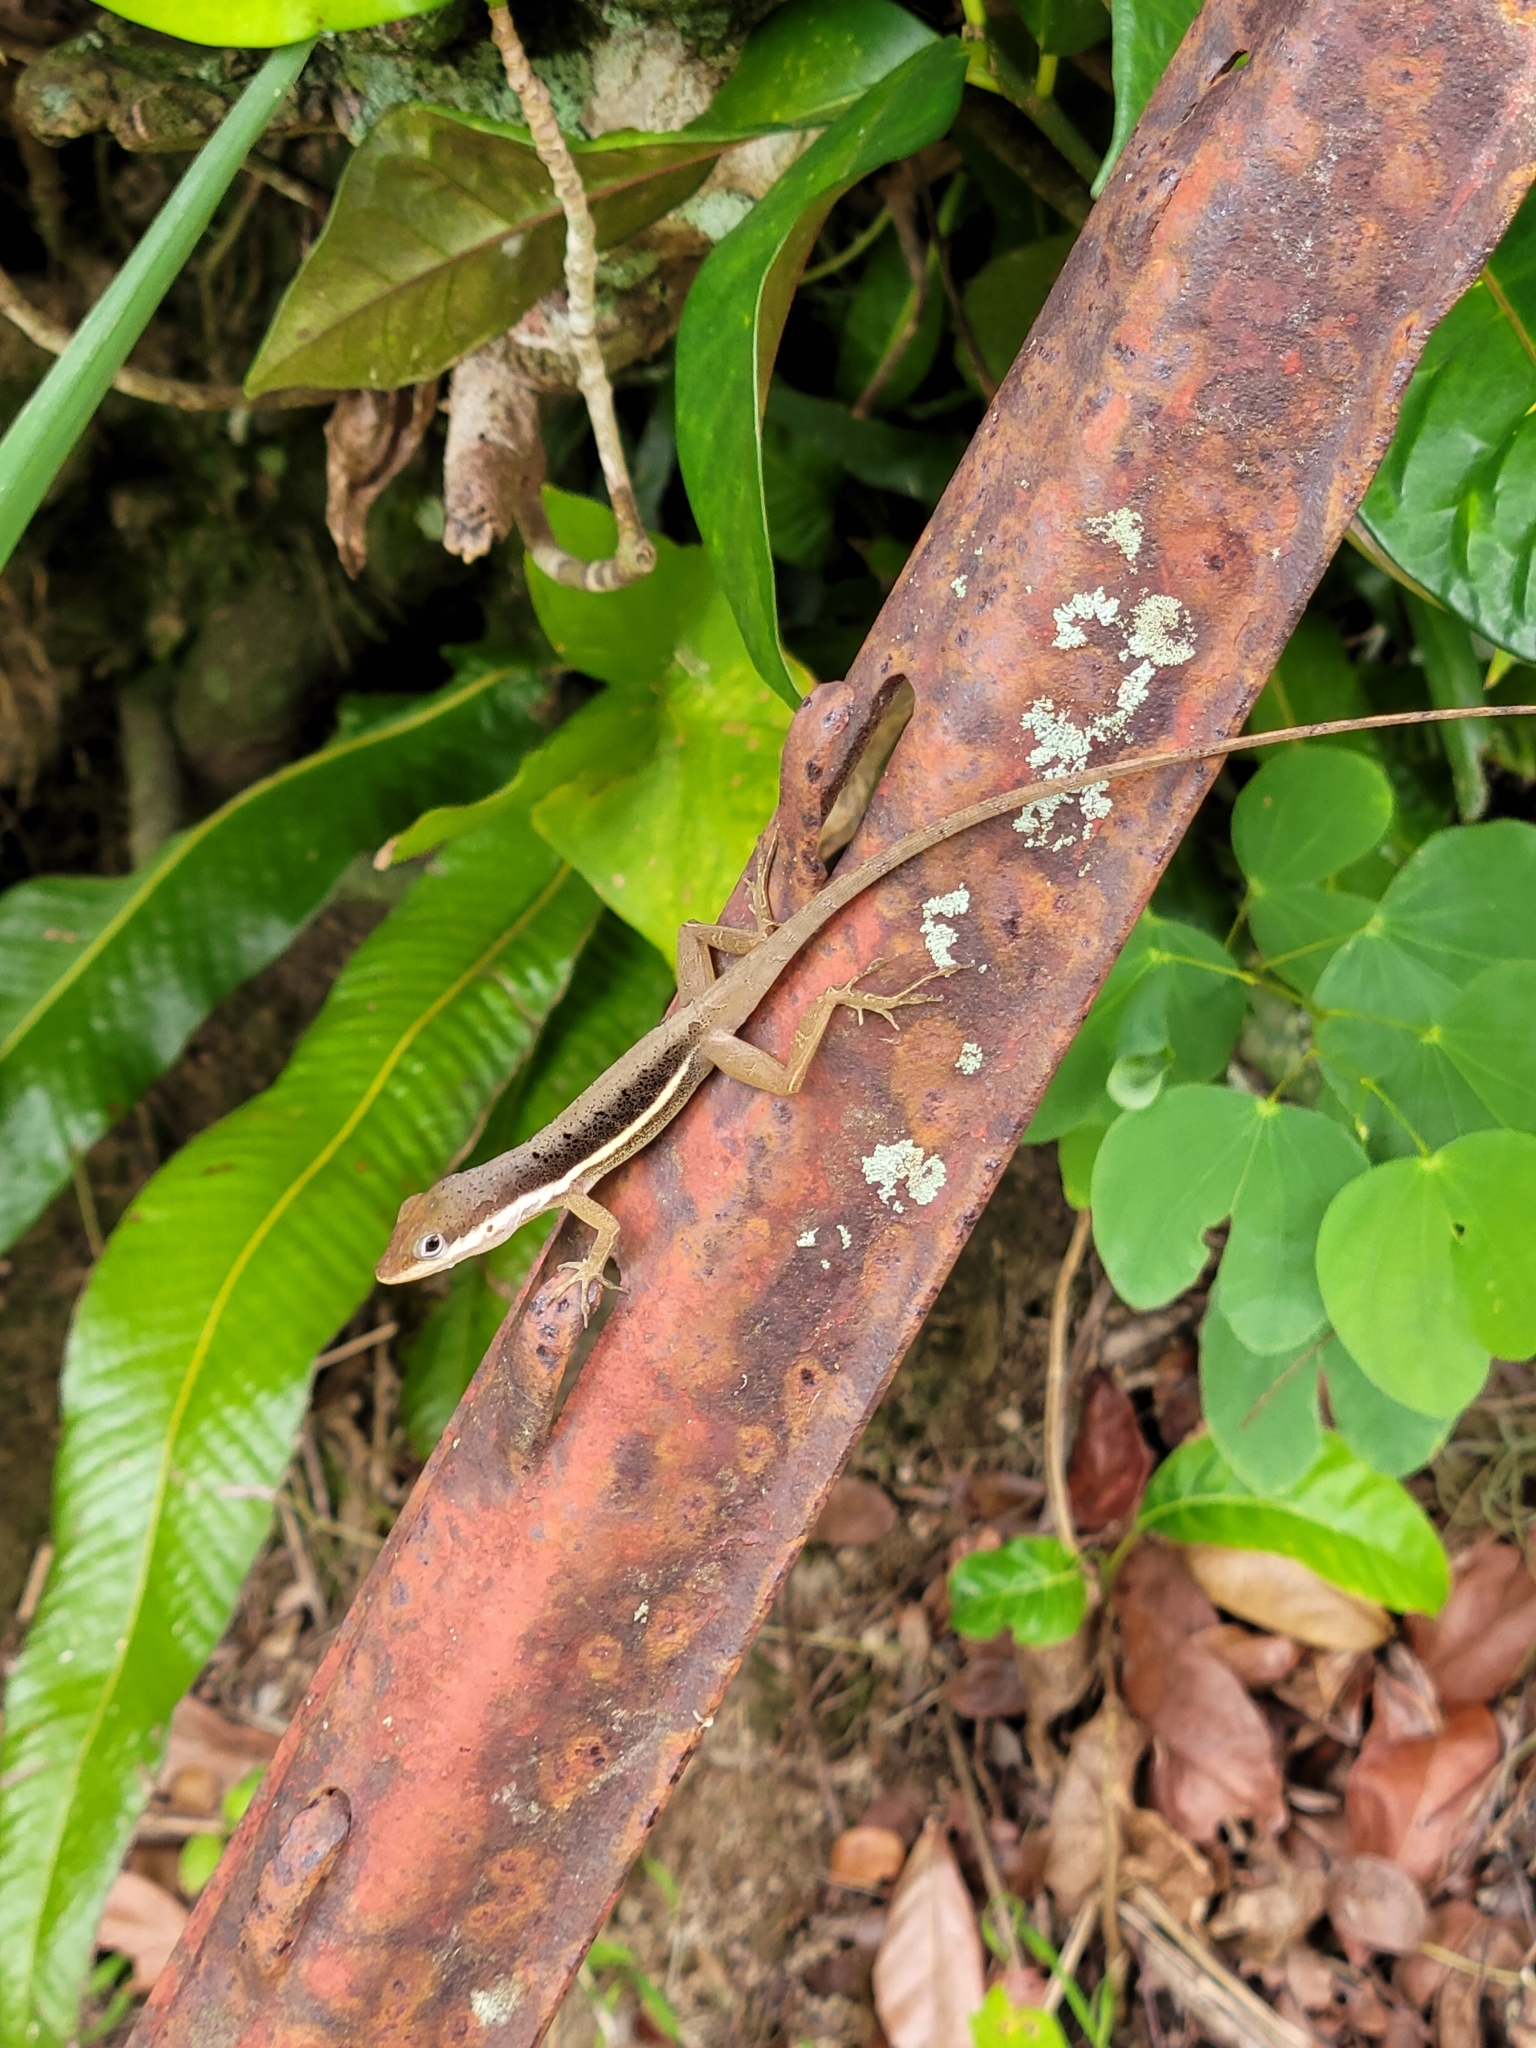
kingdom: Animalia
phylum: Chordata
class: Squamata
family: Dactyloidae
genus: Anolis
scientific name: Anolis krugi
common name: Krug's anole
